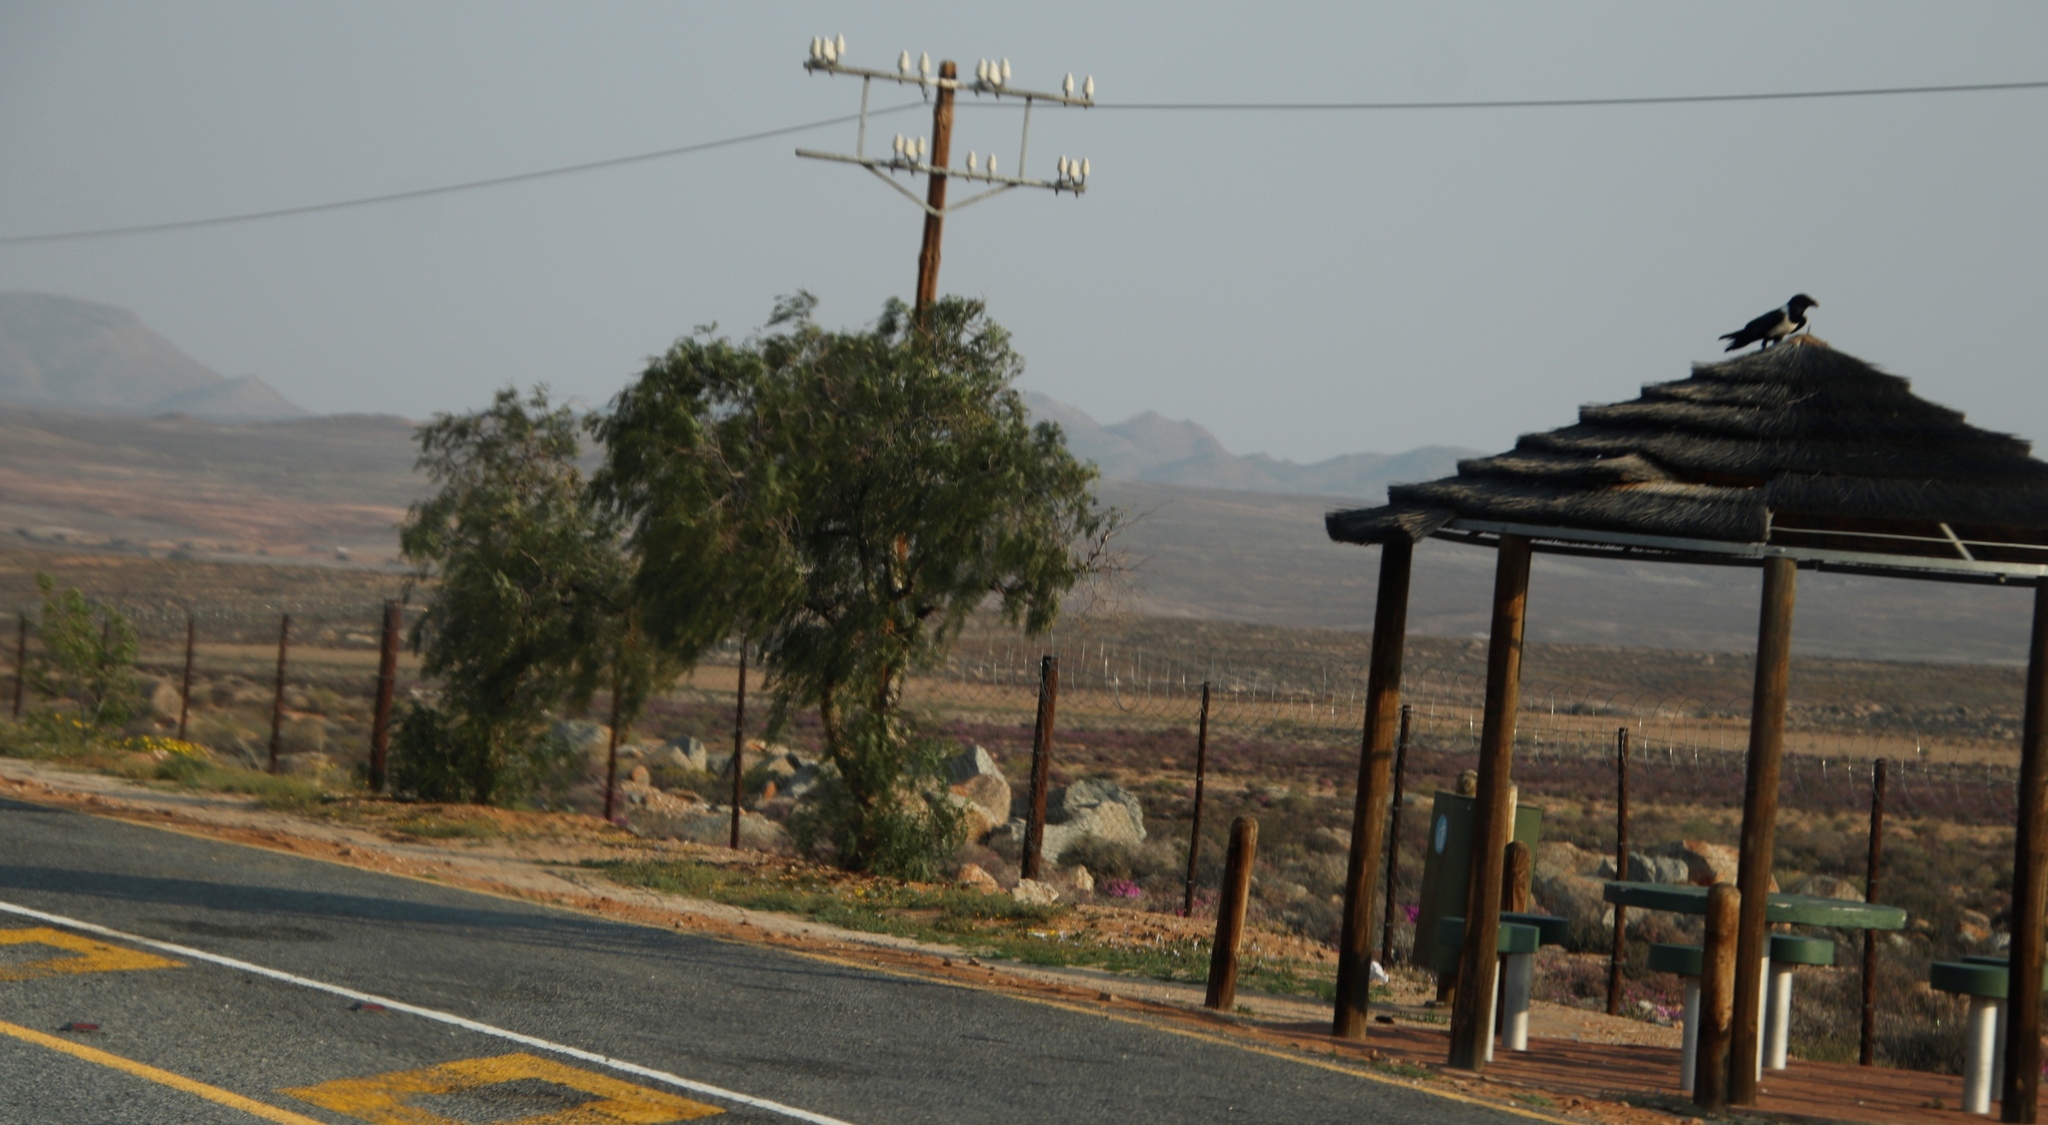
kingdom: Animalia
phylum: Chordata
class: Aves
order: Passeriformes
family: Corvidae
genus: Corvus
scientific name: Corvus albus
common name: Pied crow
